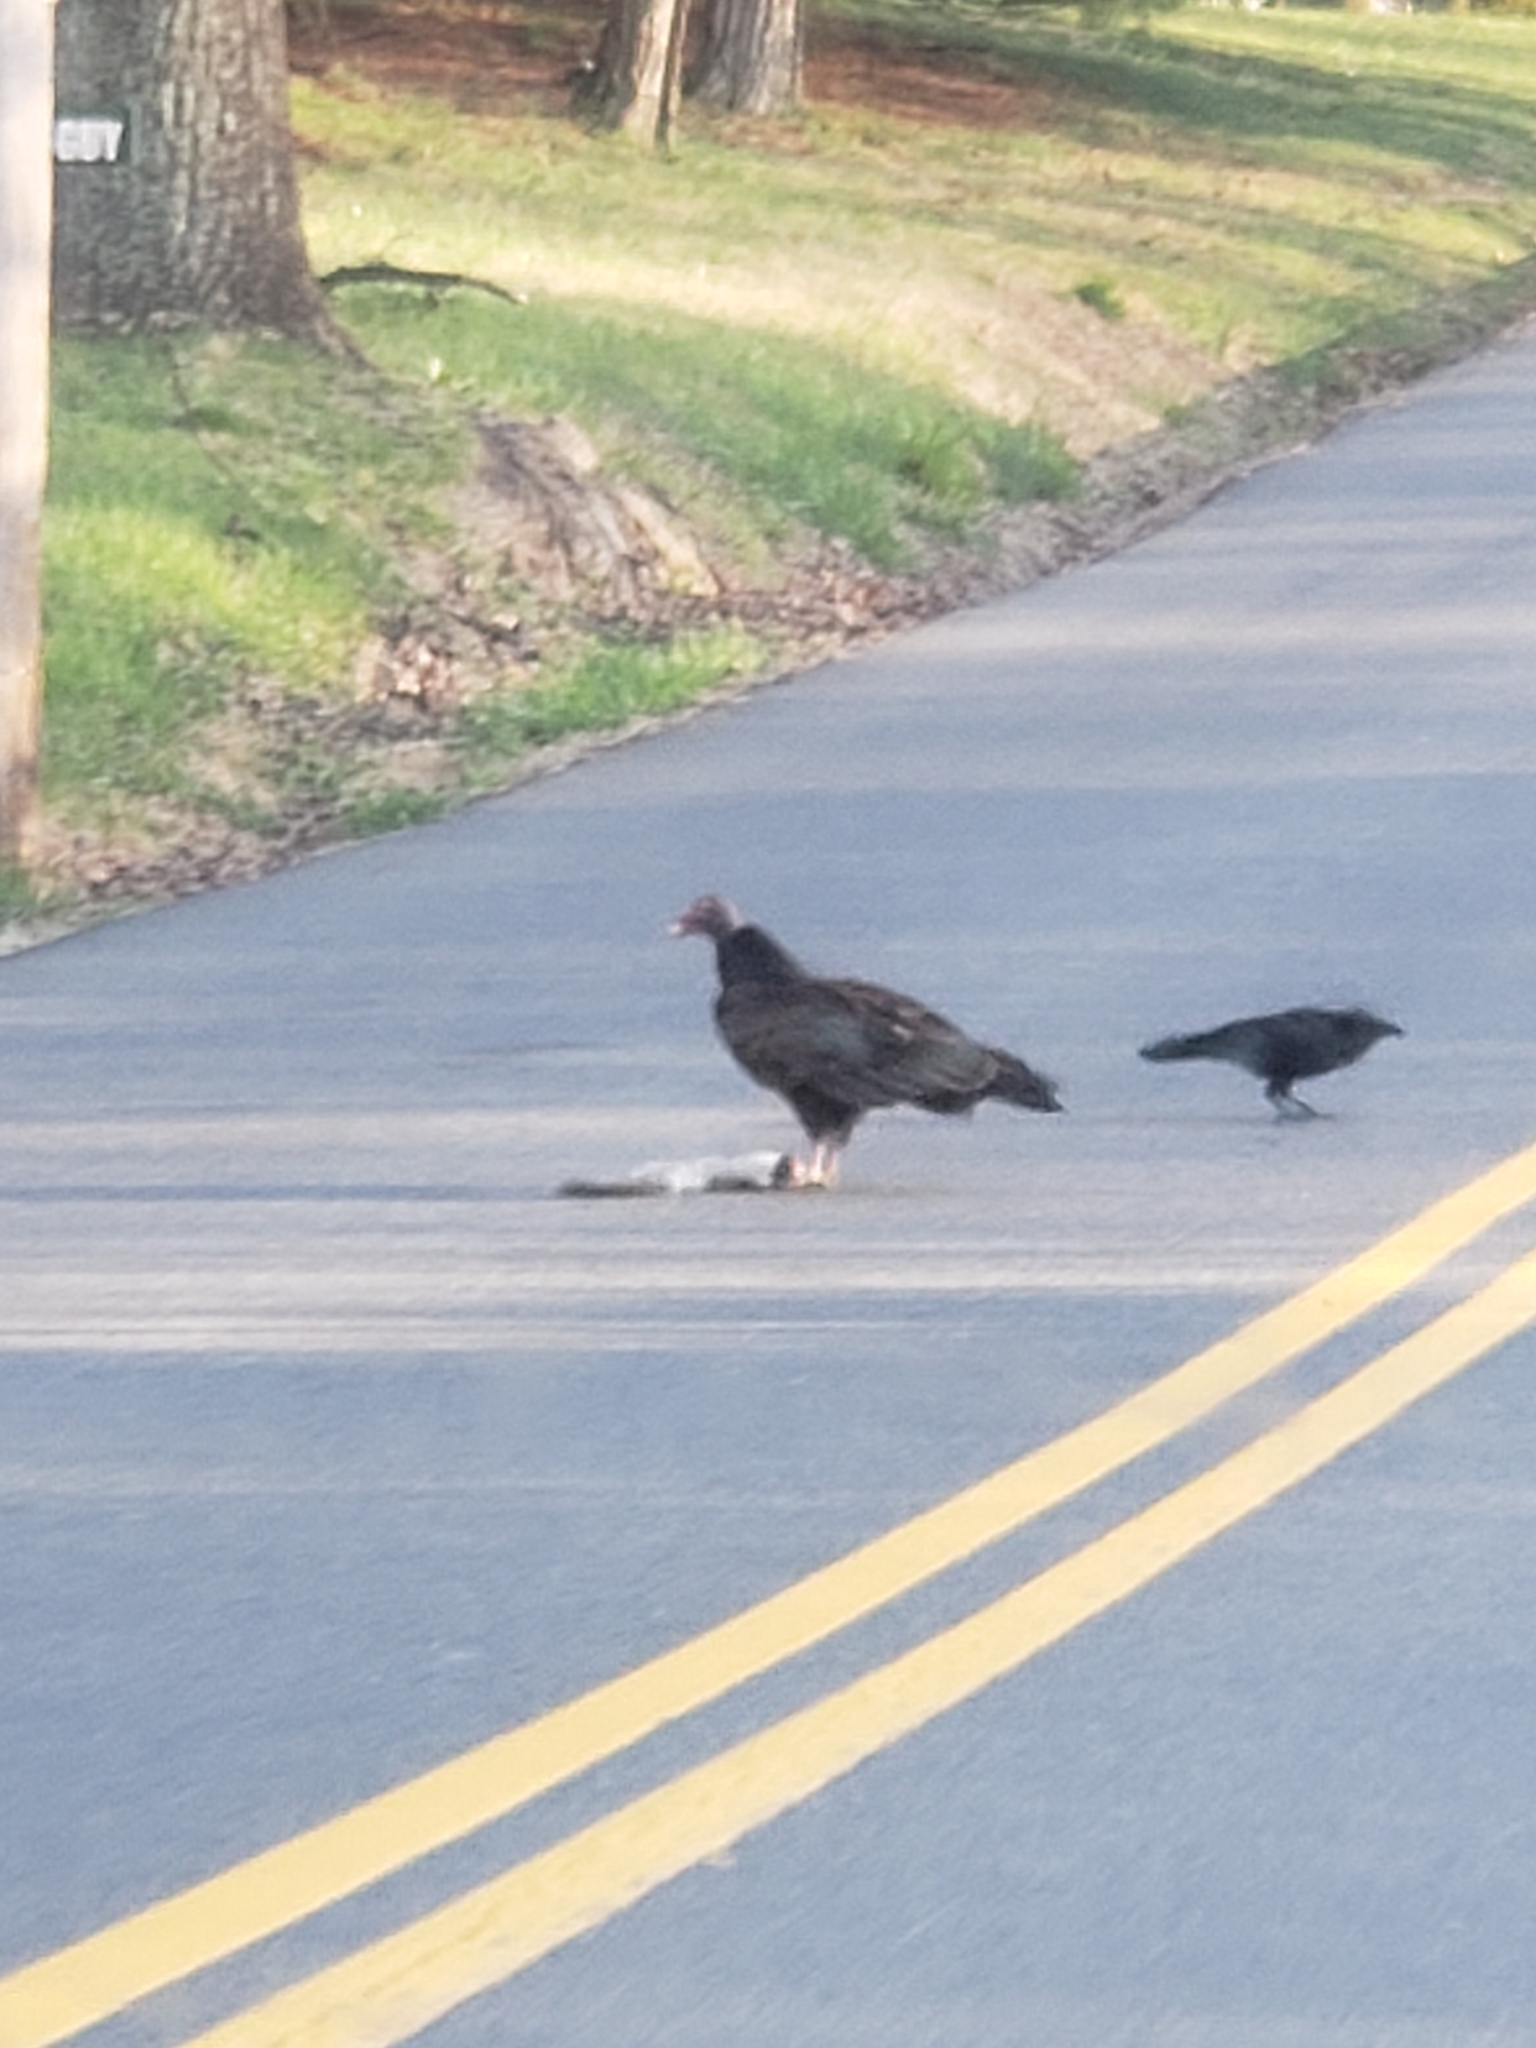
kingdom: Animalia
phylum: Chordata
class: Aves
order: Accipitriformes
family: Cathartidae
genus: Cathartes
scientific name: Cathartes aura
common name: Turkey vulture
